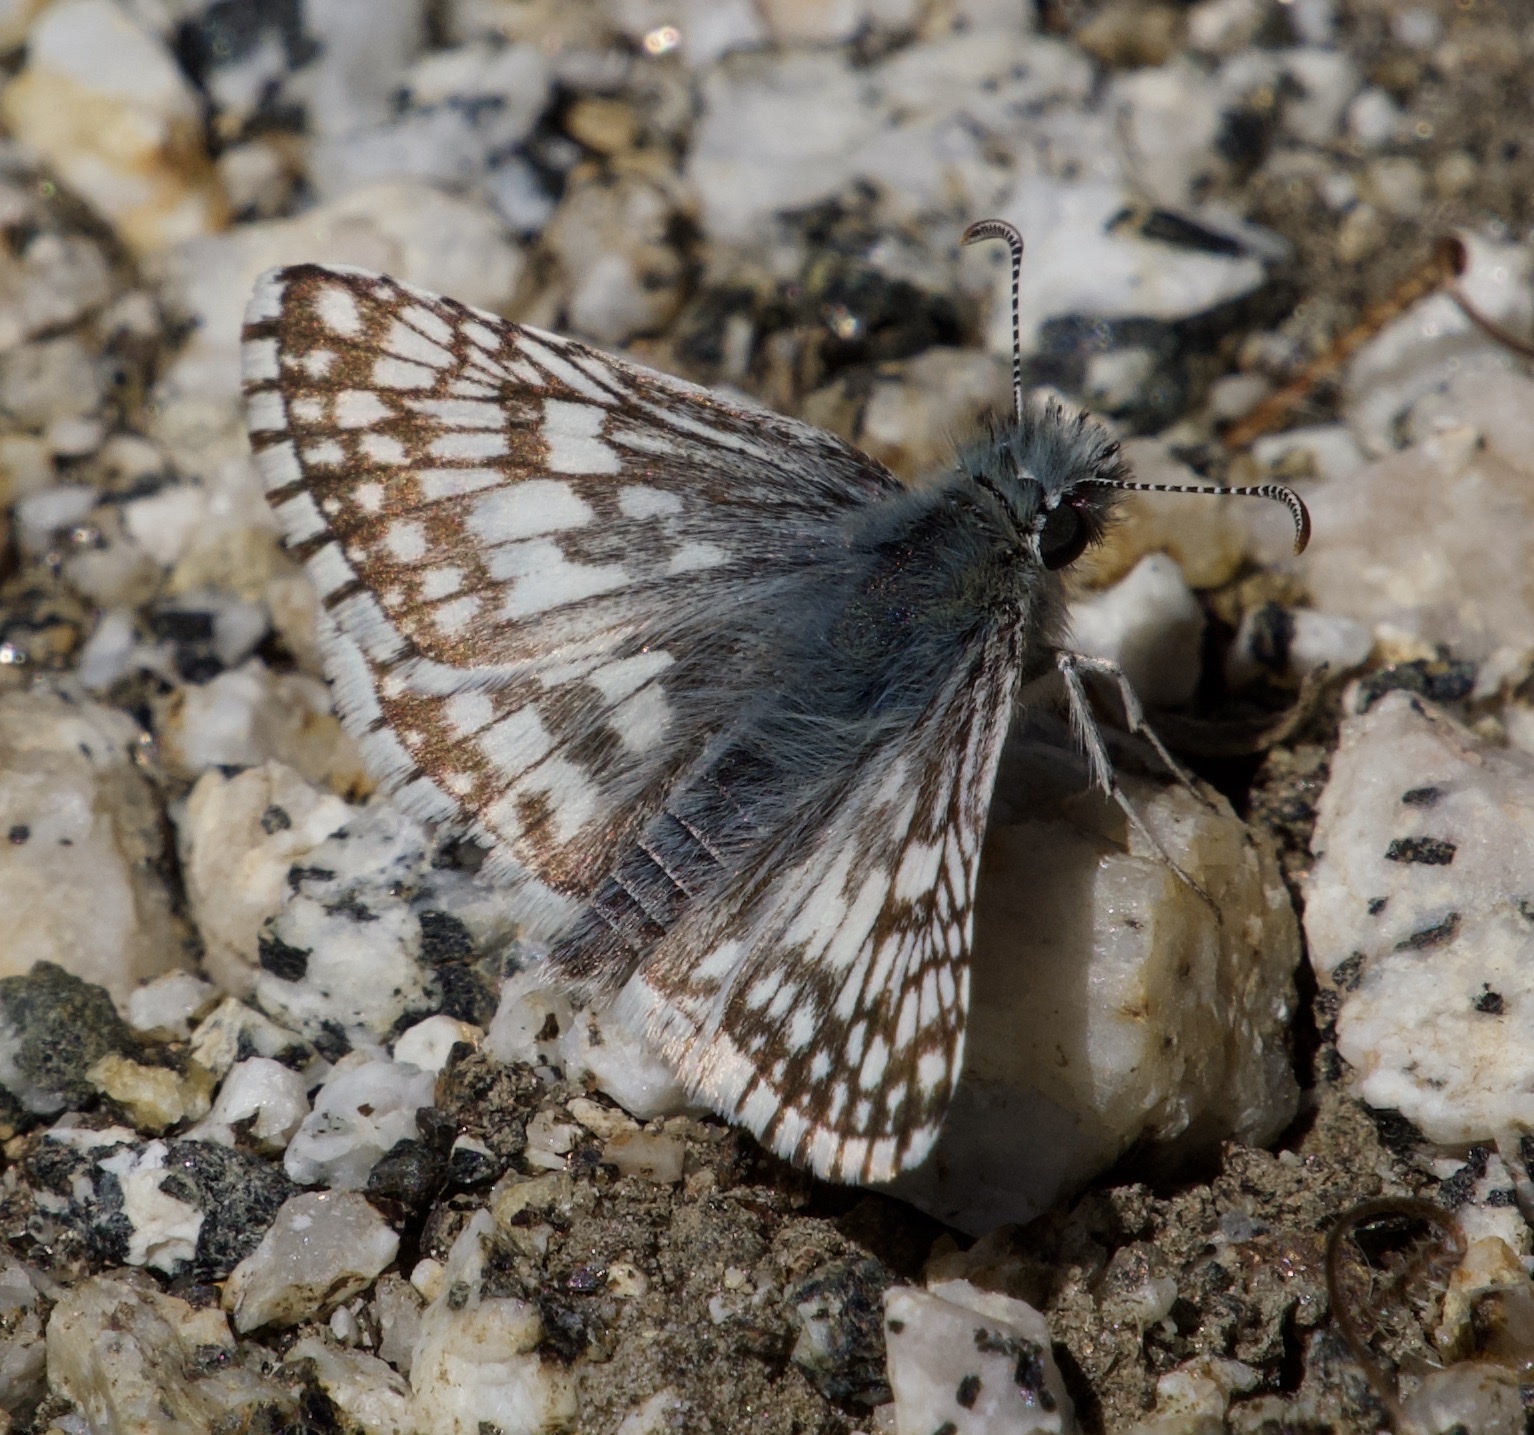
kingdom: Animalia
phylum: Arthropoda
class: Insecta
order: Lepidoptera
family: Hesperiidae
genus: Burnsius
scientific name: Burnsius albezens
